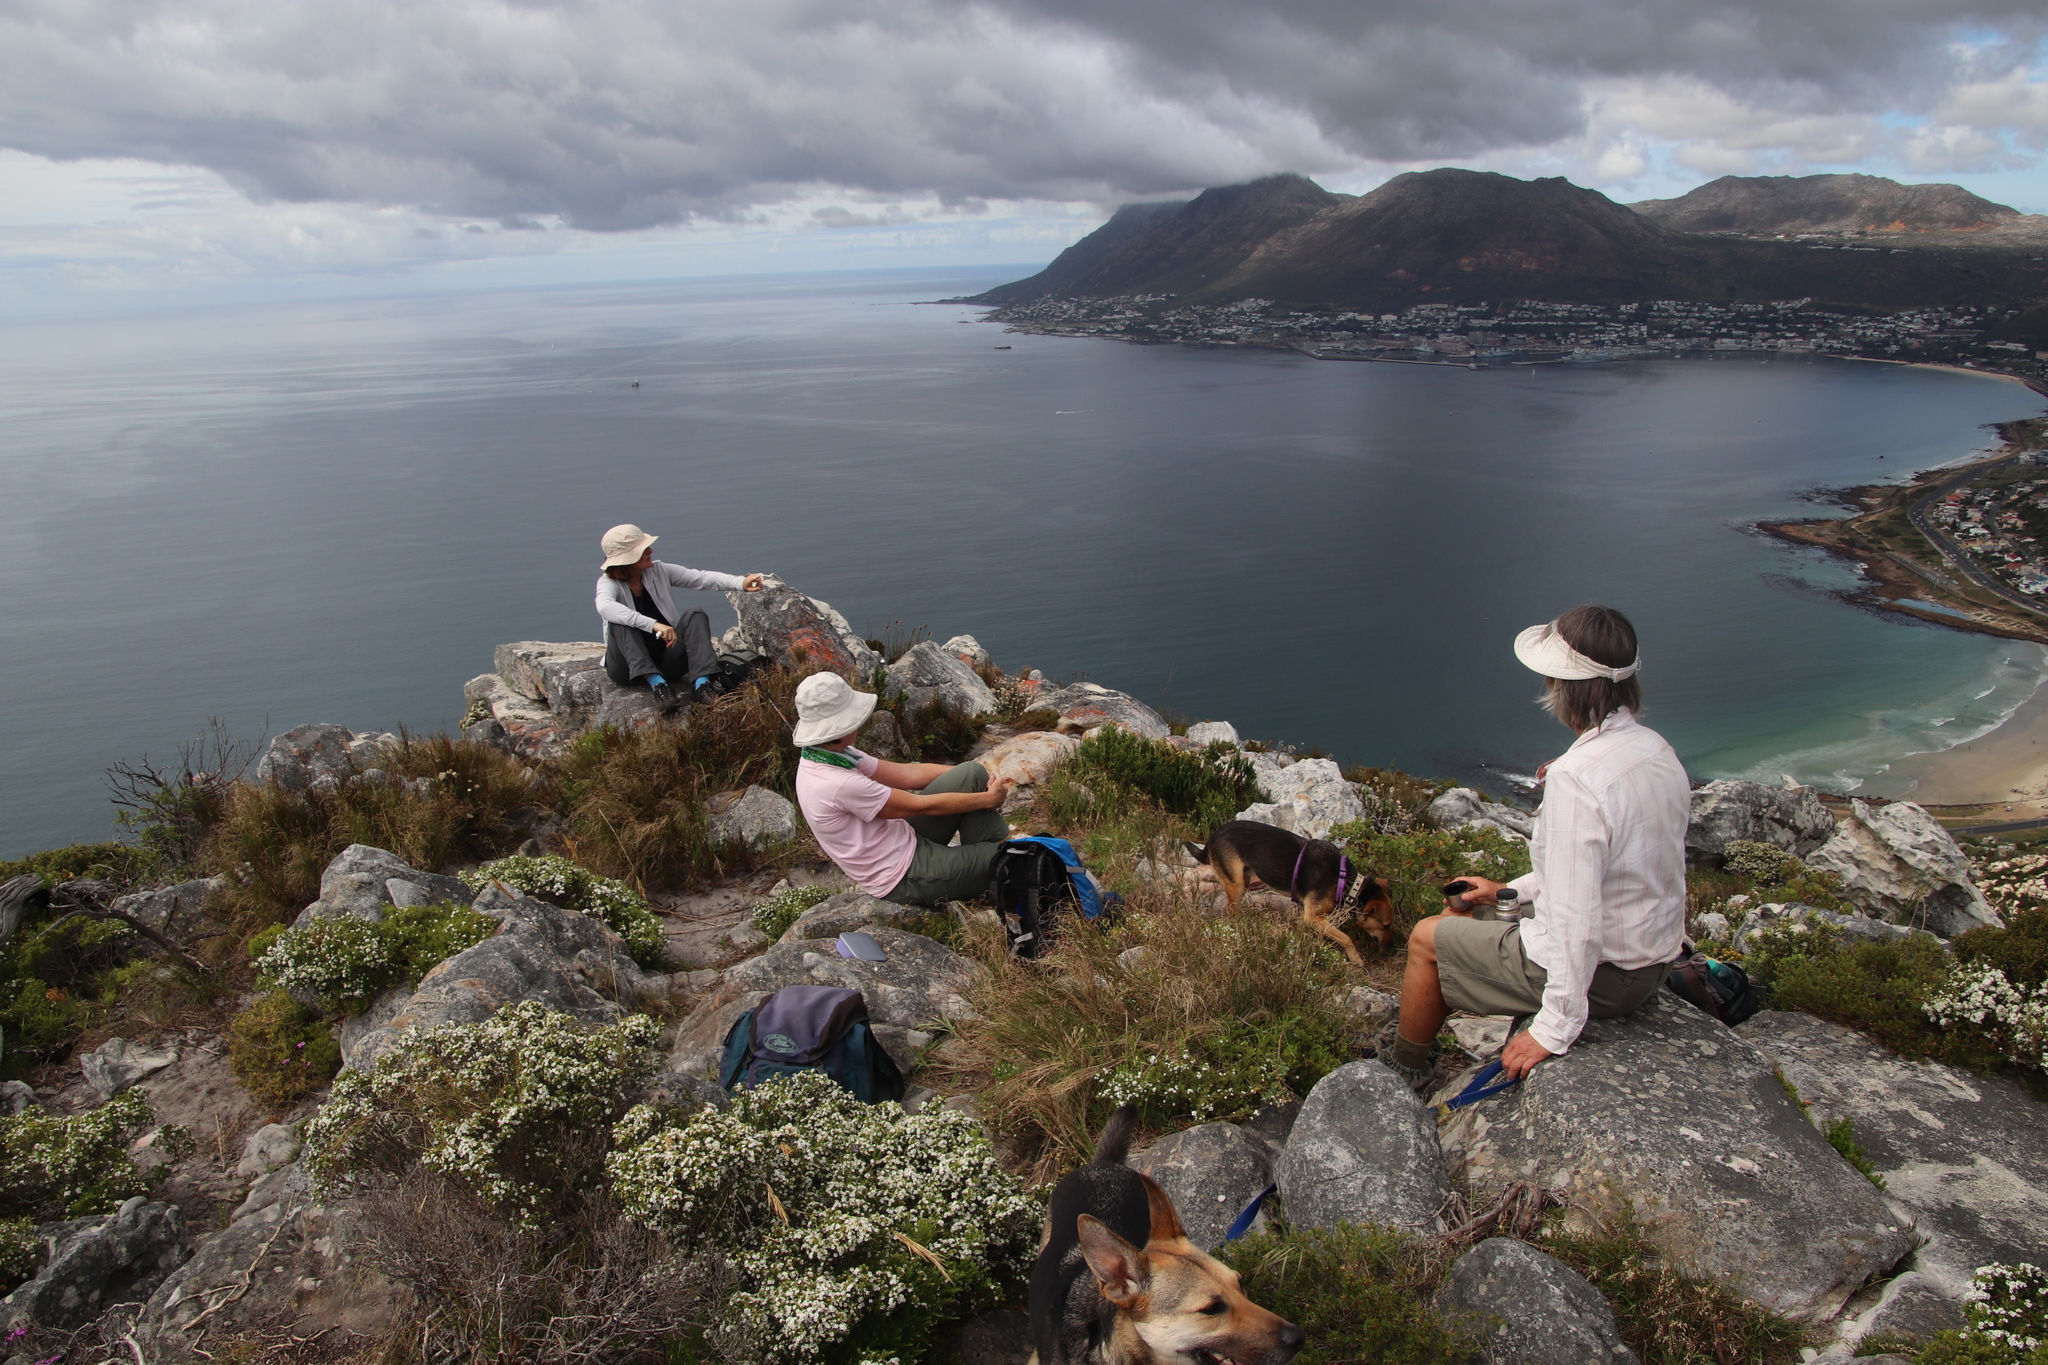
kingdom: Plantae
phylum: Tracheophyta
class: Magnoliopsida
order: Sapindales
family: Rutaceae
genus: Coleonema
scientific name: Coleonema album
